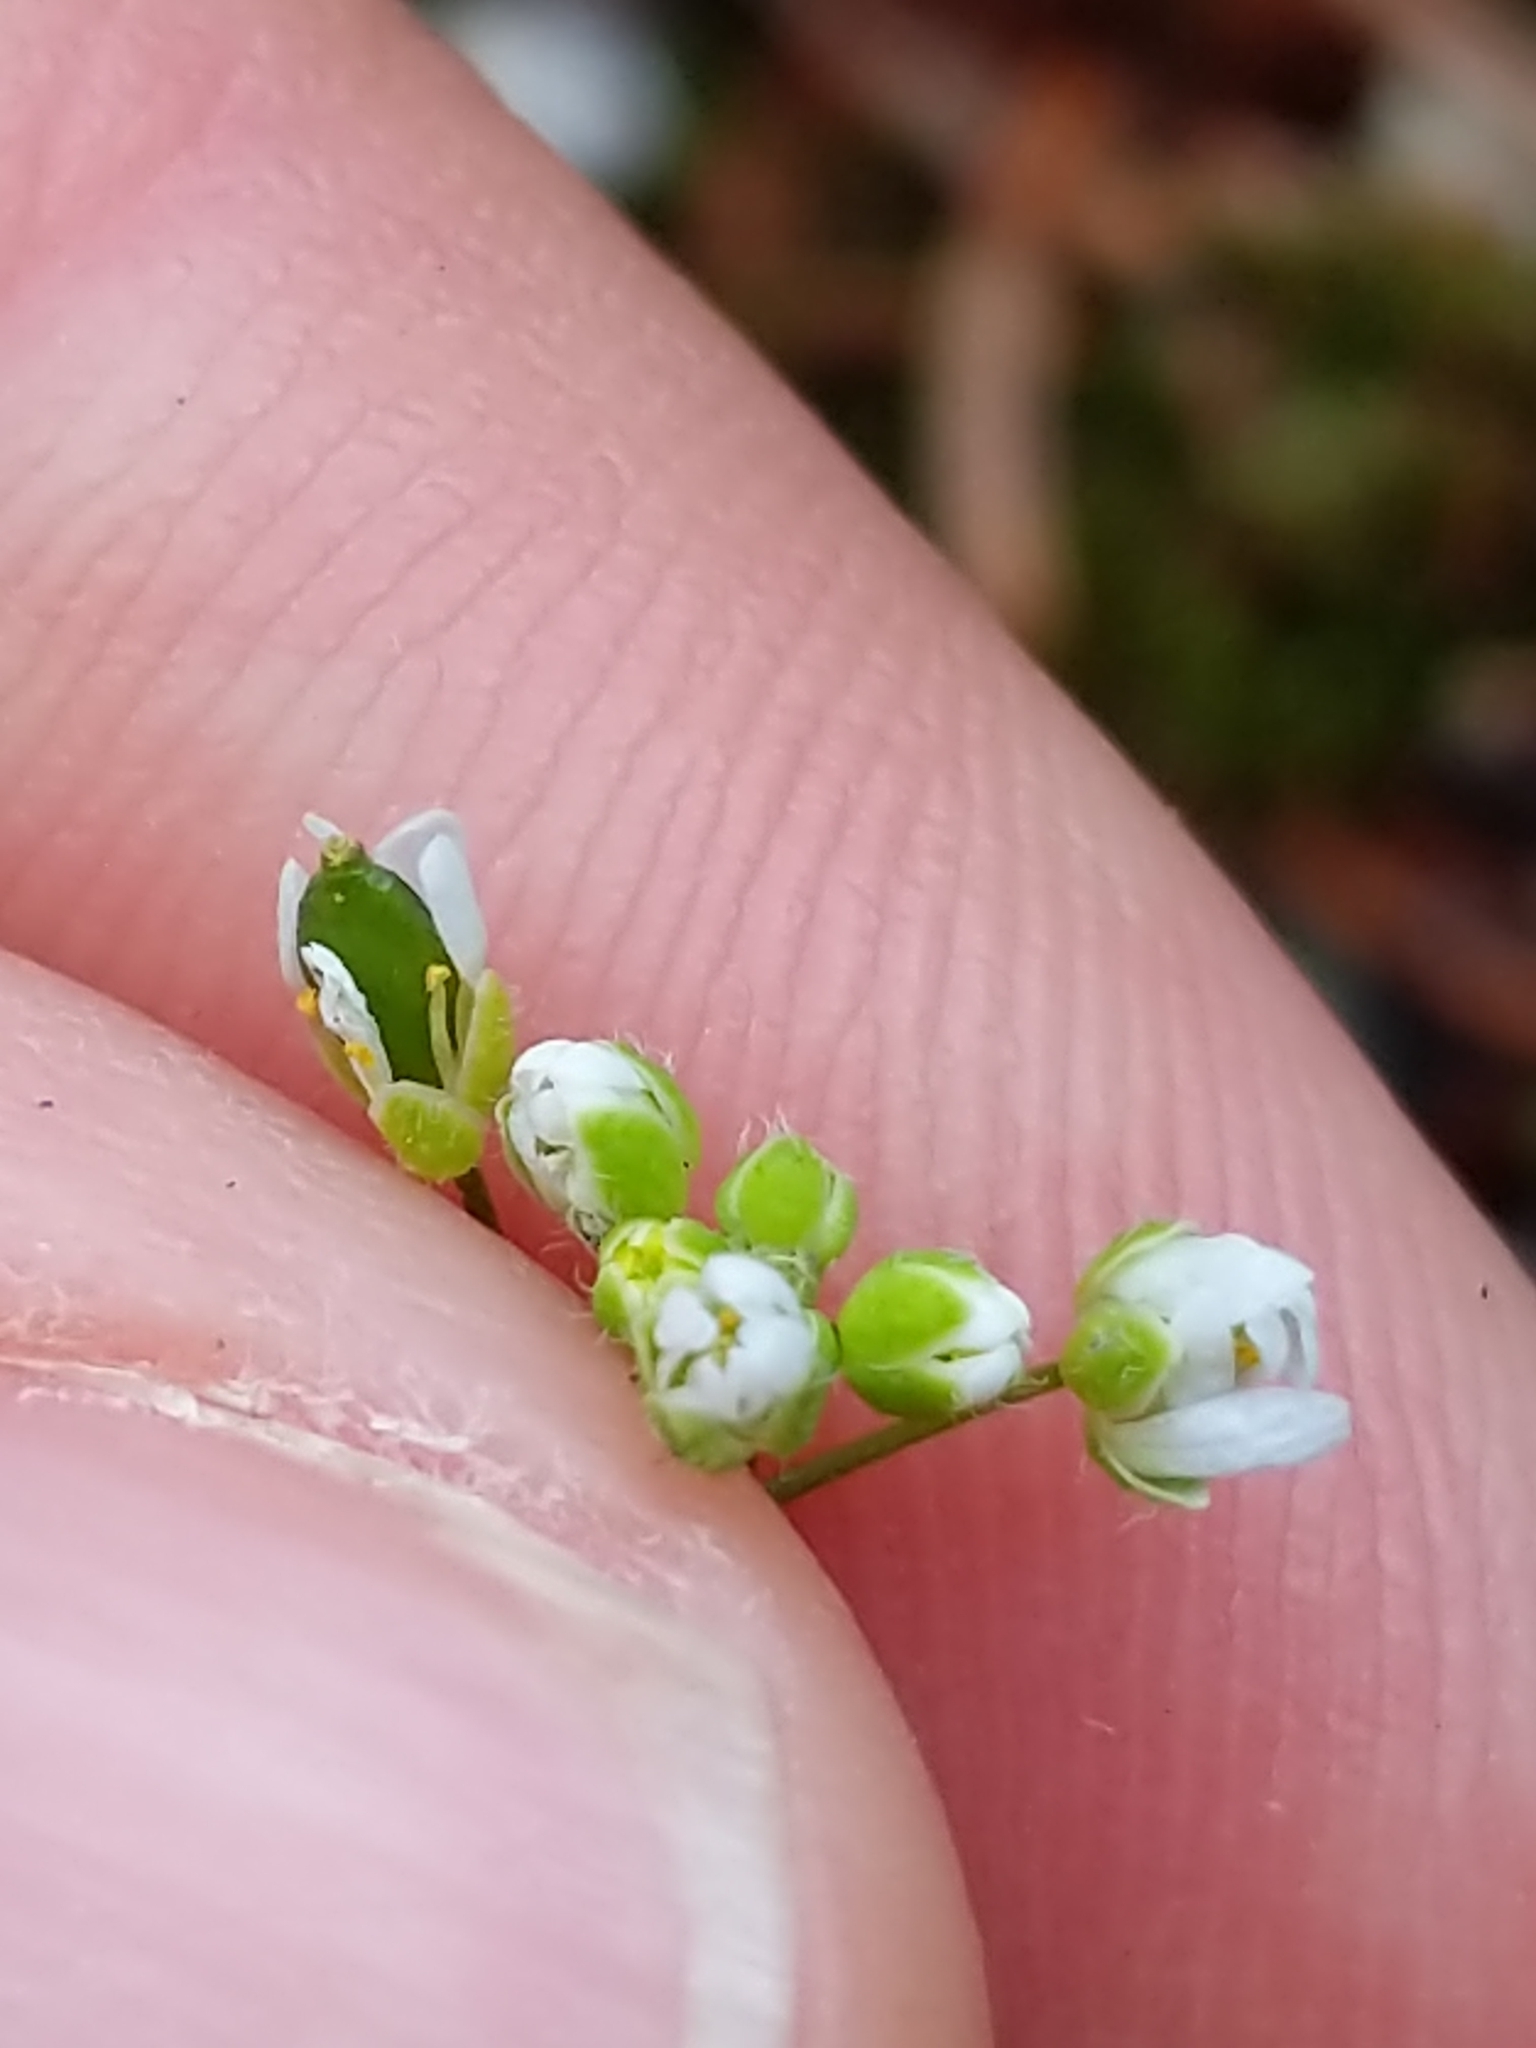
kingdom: Plantae
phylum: Tracheophyta
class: Magnoliopsida
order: Brassicales
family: Brassicaceae
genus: Draba
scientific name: Draba verna
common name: Spring draba
